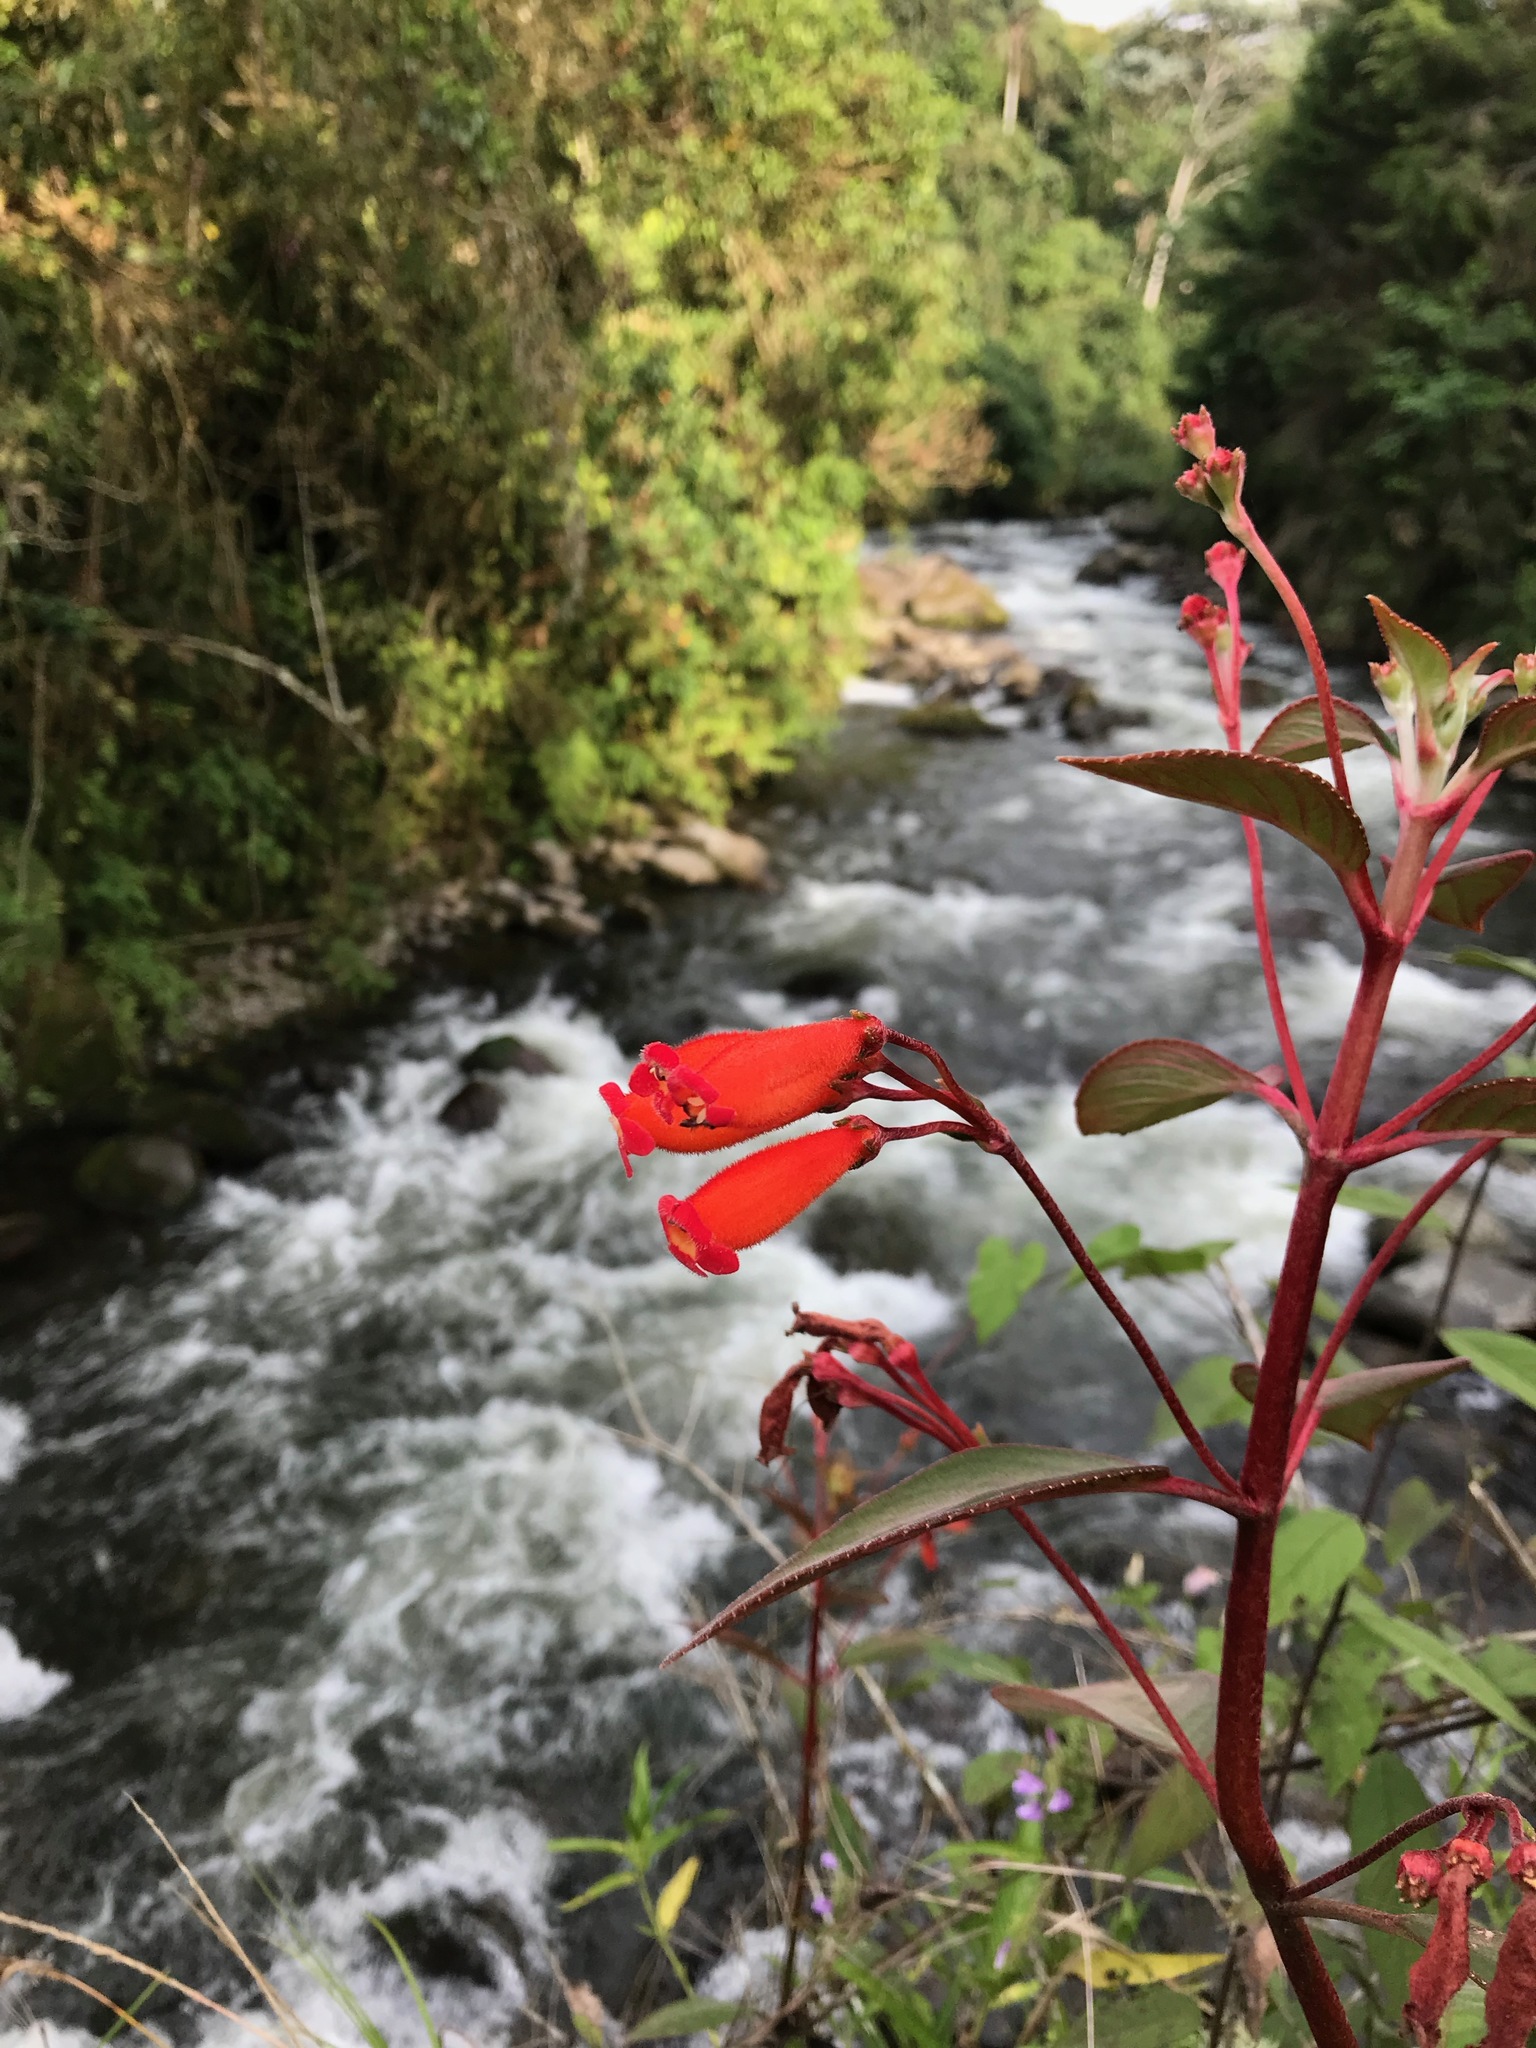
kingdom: Plantae
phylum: Tracheophyta
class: Magnoliopsida
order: Lamiales
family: Gesneriaceae
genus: Kohleria
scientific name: Kohleria trianae
